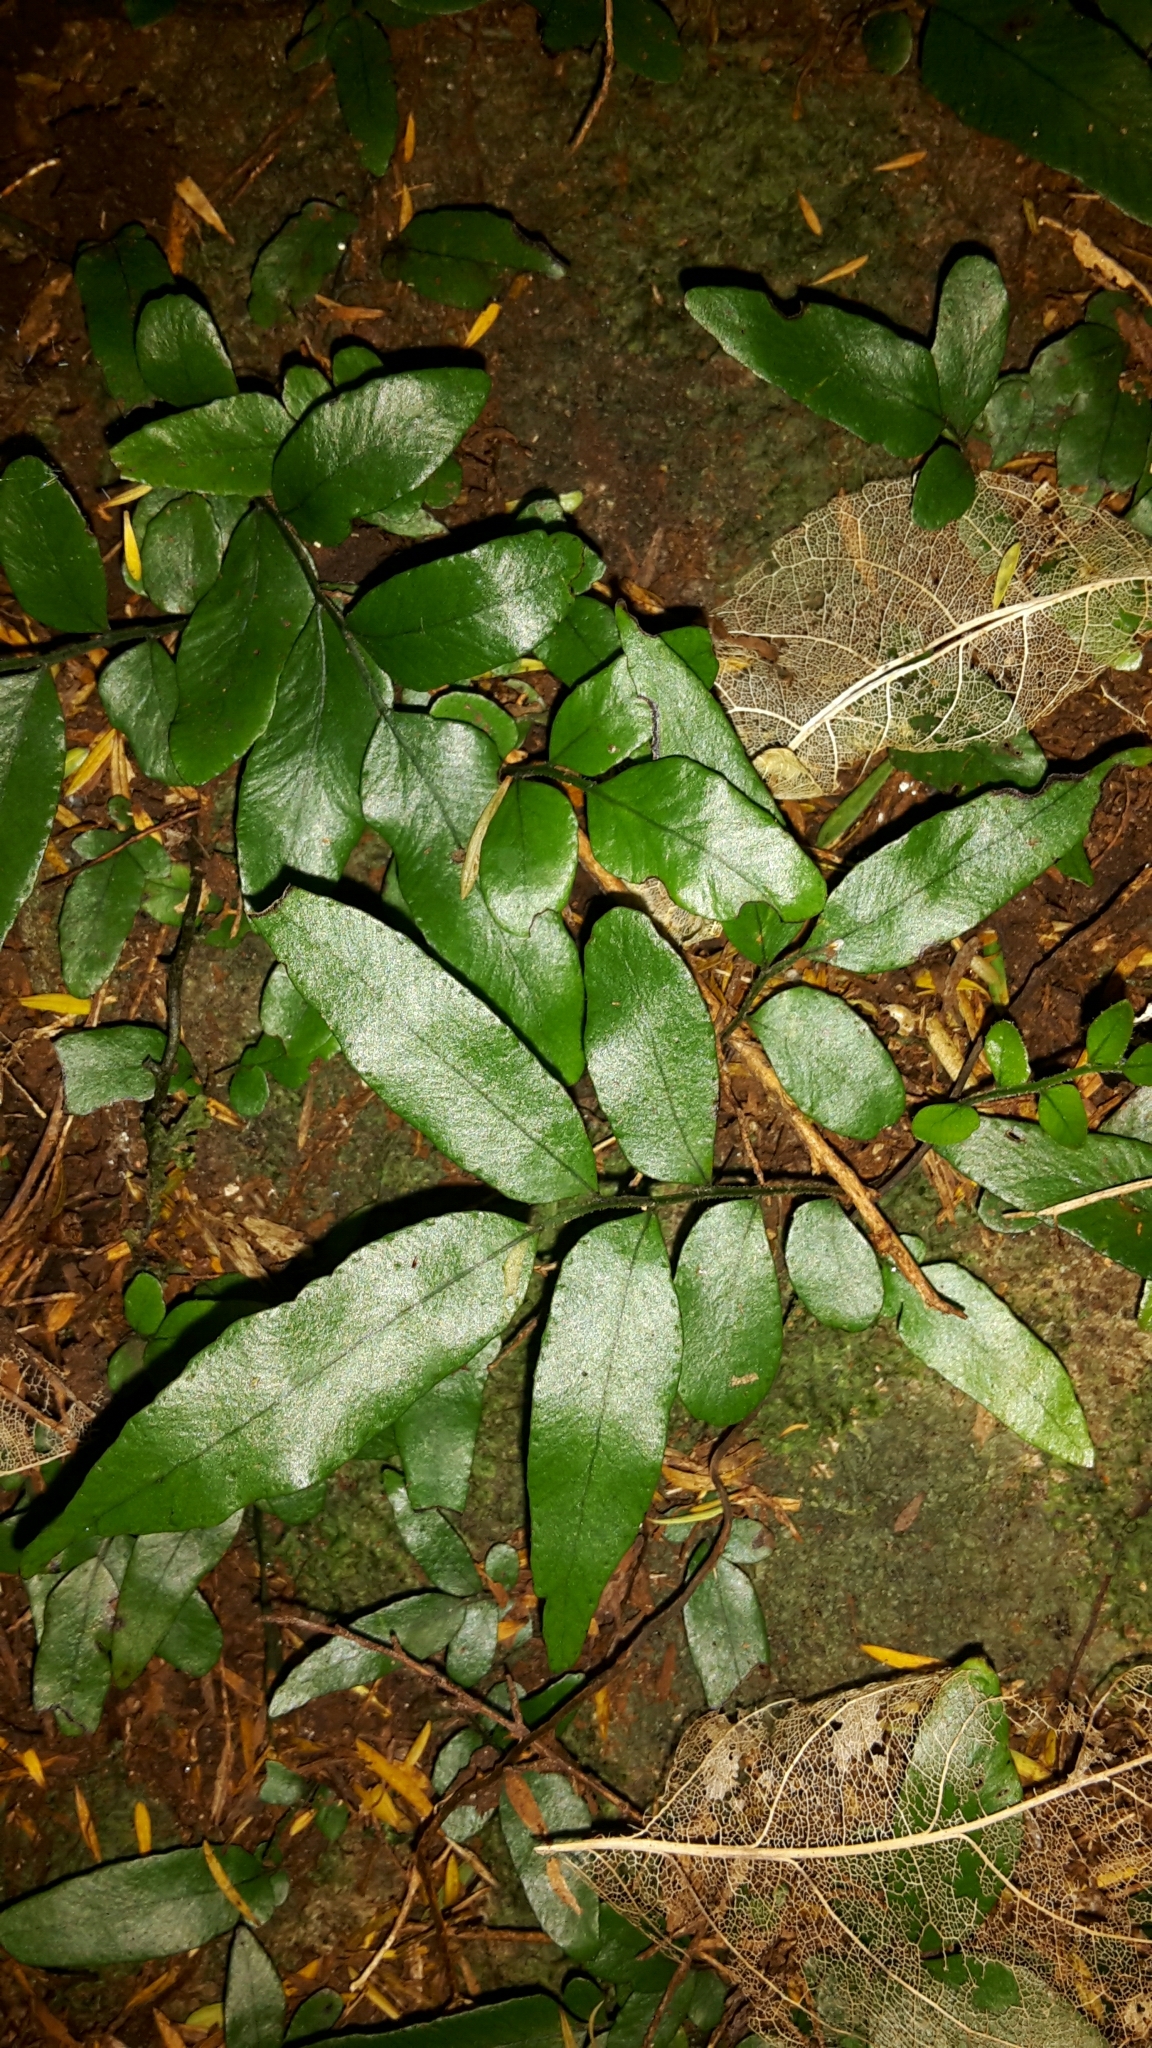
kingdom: Plantae
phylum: Tracheophyta
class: Polypodiopsida
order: Polypodiales
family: Tectariaceae
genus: Arthropteris
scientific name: Arthropteris tenella
